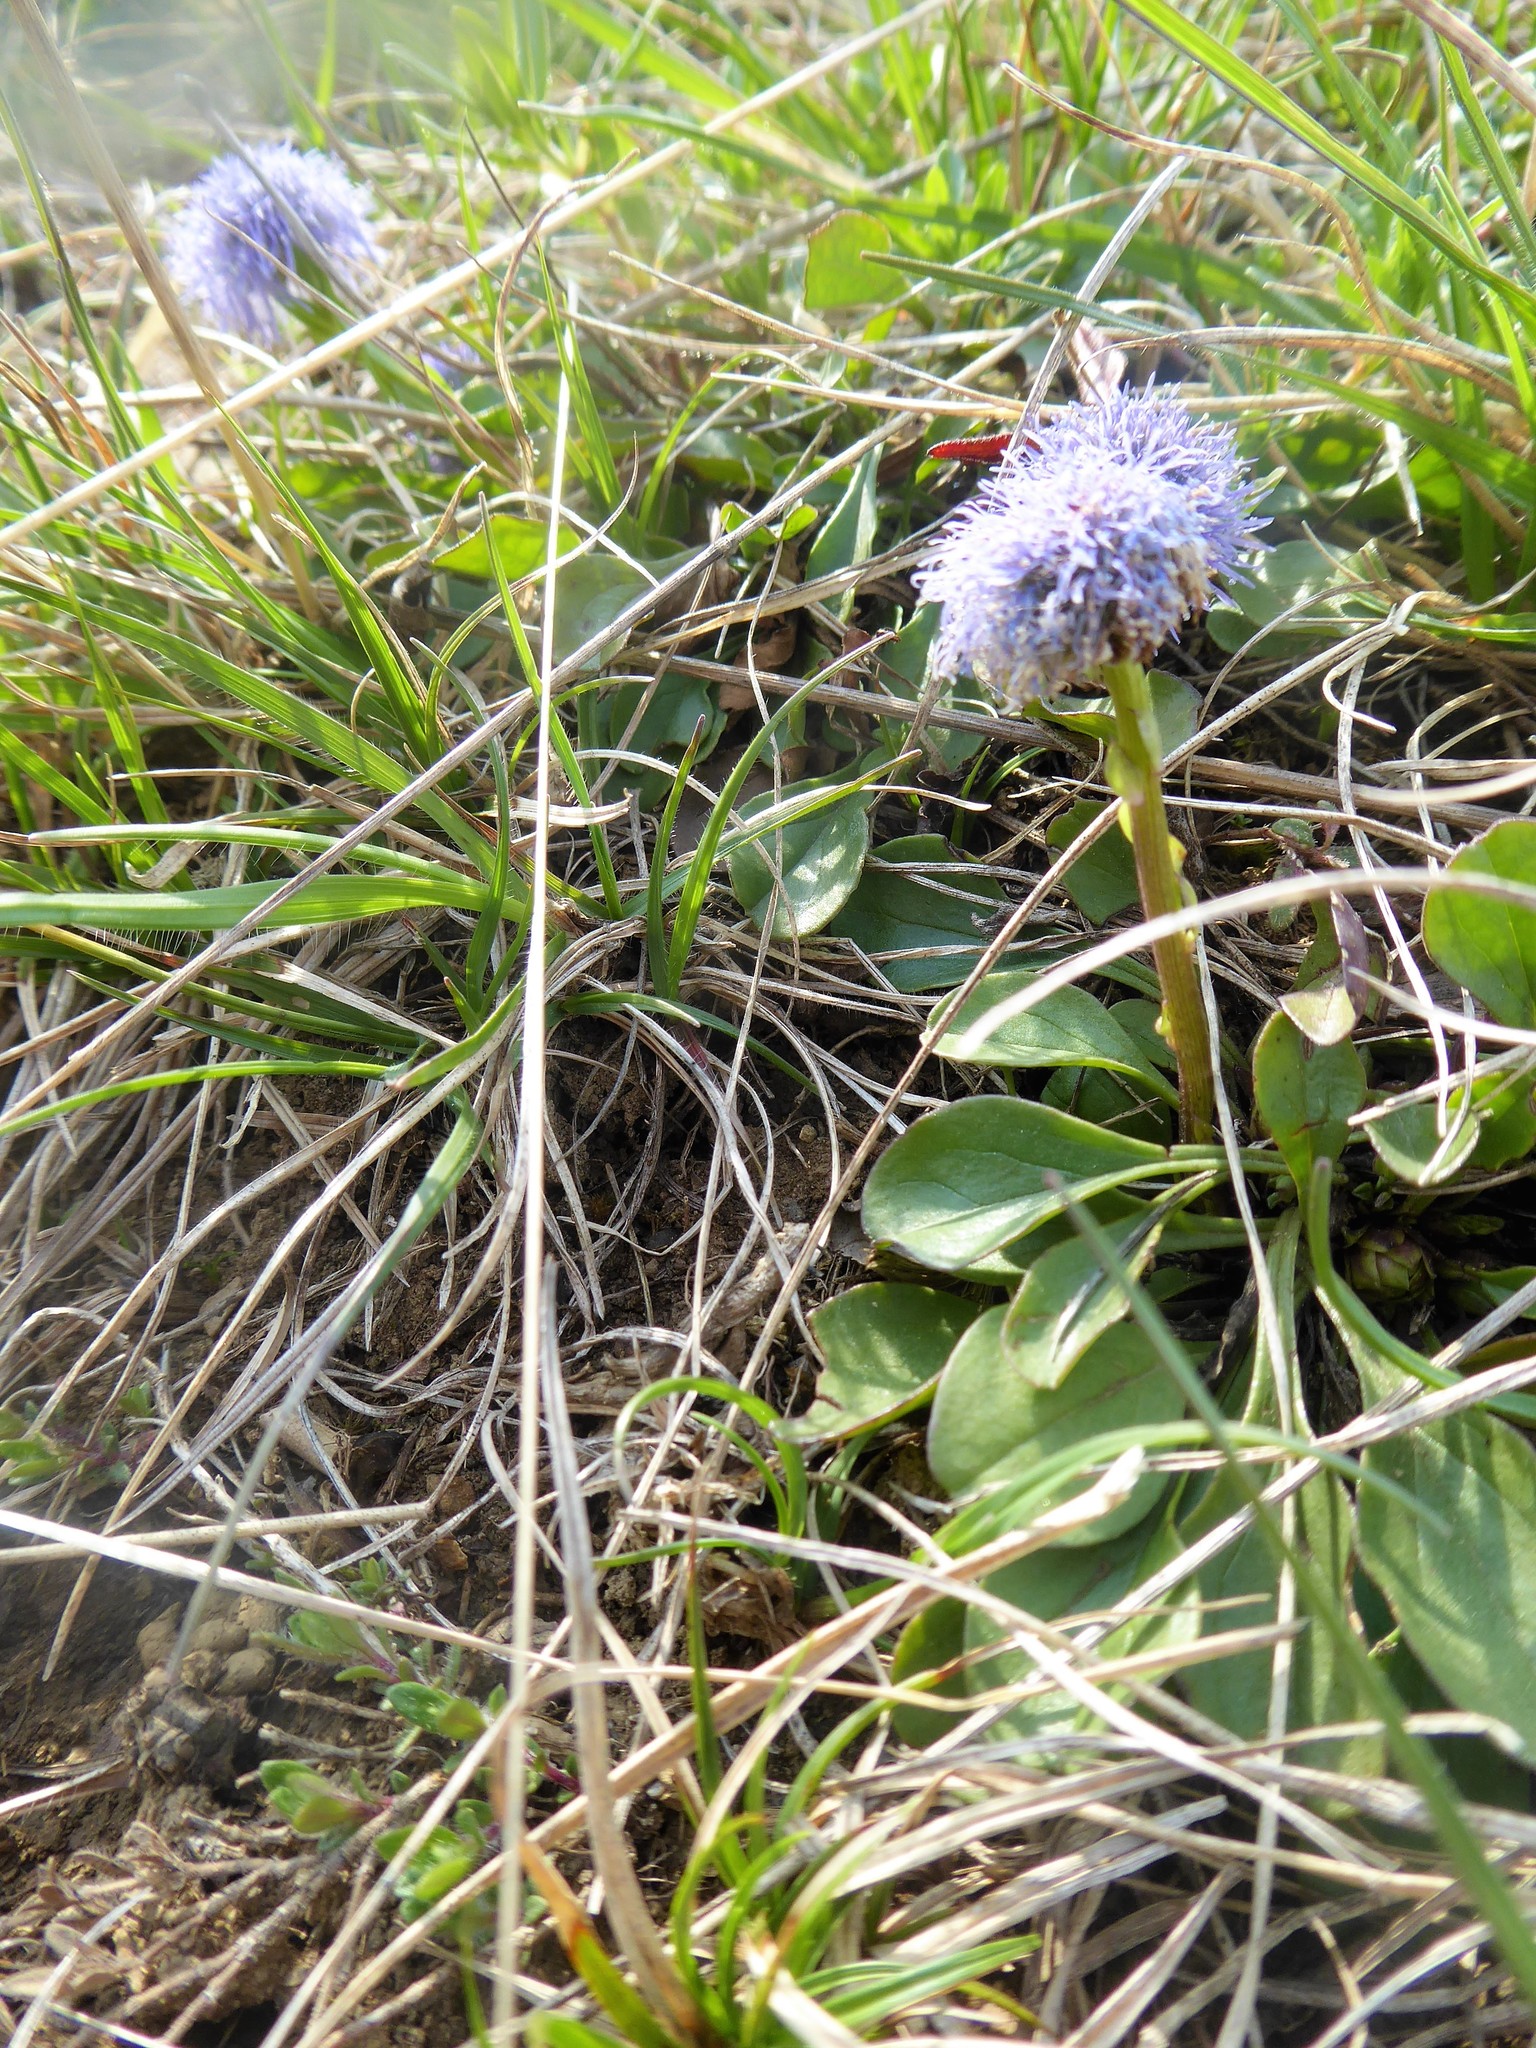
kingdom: Plantae
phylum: Tracheophyta
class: Magnoliopsida
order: Lamiales
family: Plantaginaceae
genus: Globularia
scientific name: Globularia bisnagarica
